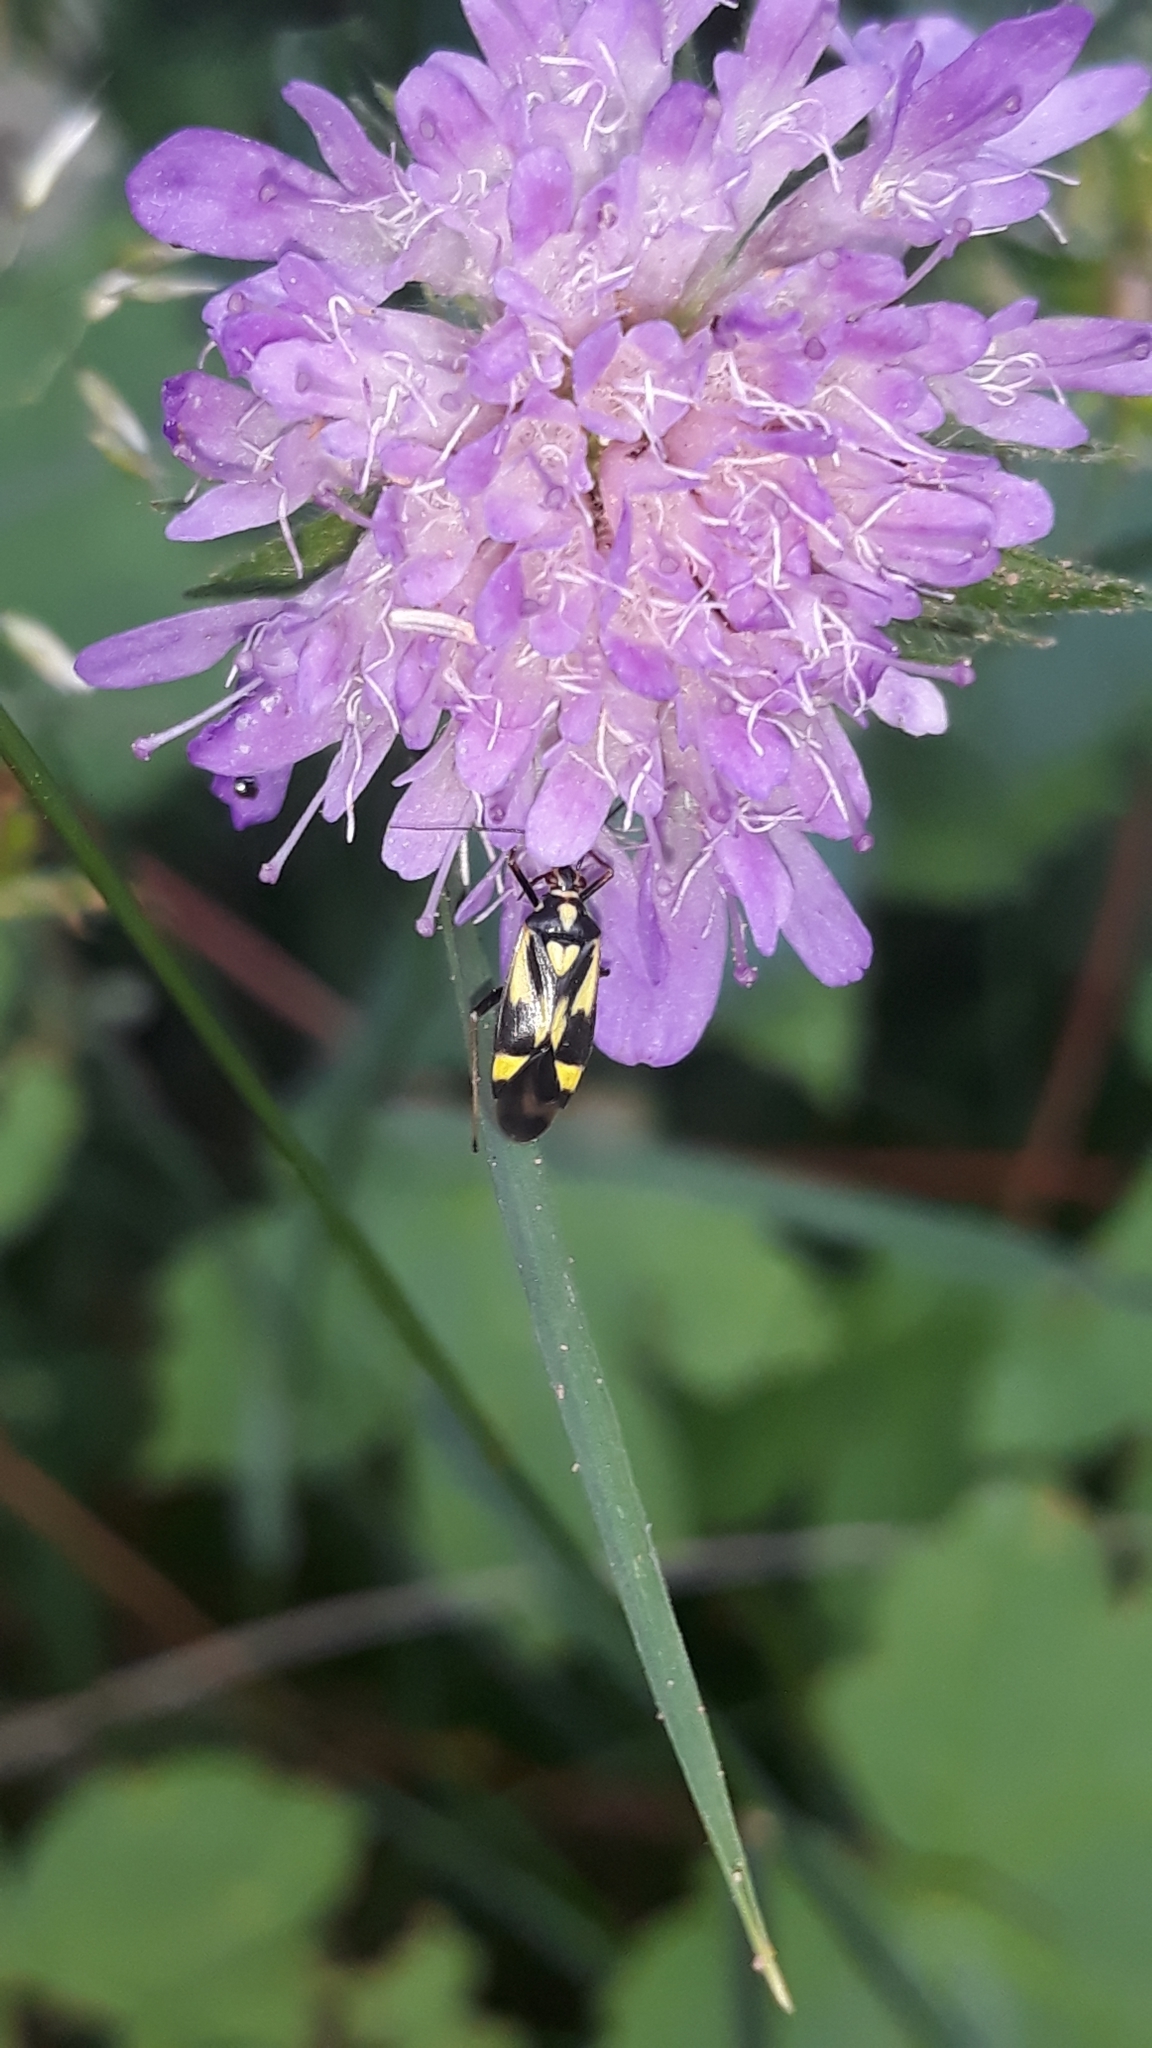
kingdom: Animalia
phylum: Arthropoda
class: Insecta
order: Hemiptera
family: Miridae
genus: Grypocoris
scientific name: Grypocoris sexguttatus
